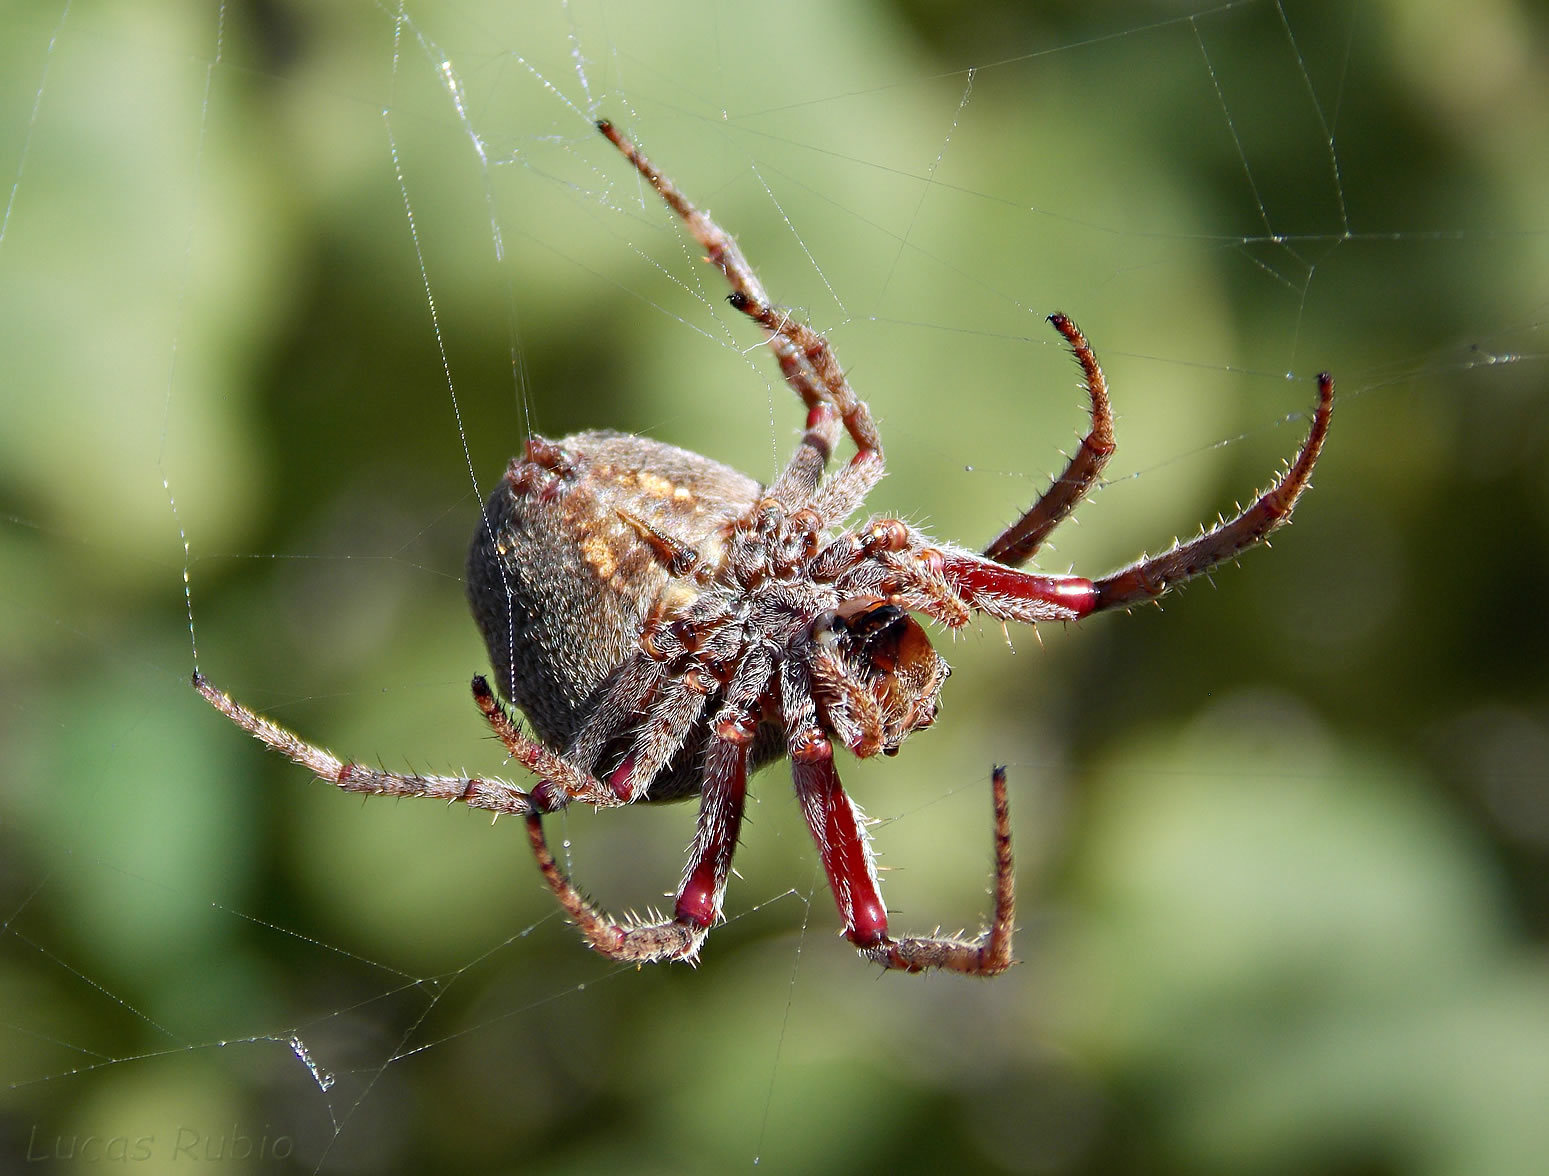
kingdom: Animalia
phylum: Arthropoda
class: Arachnida
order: Araneae
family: Araneidae
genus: Parawixia
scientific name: Parawixia audax
